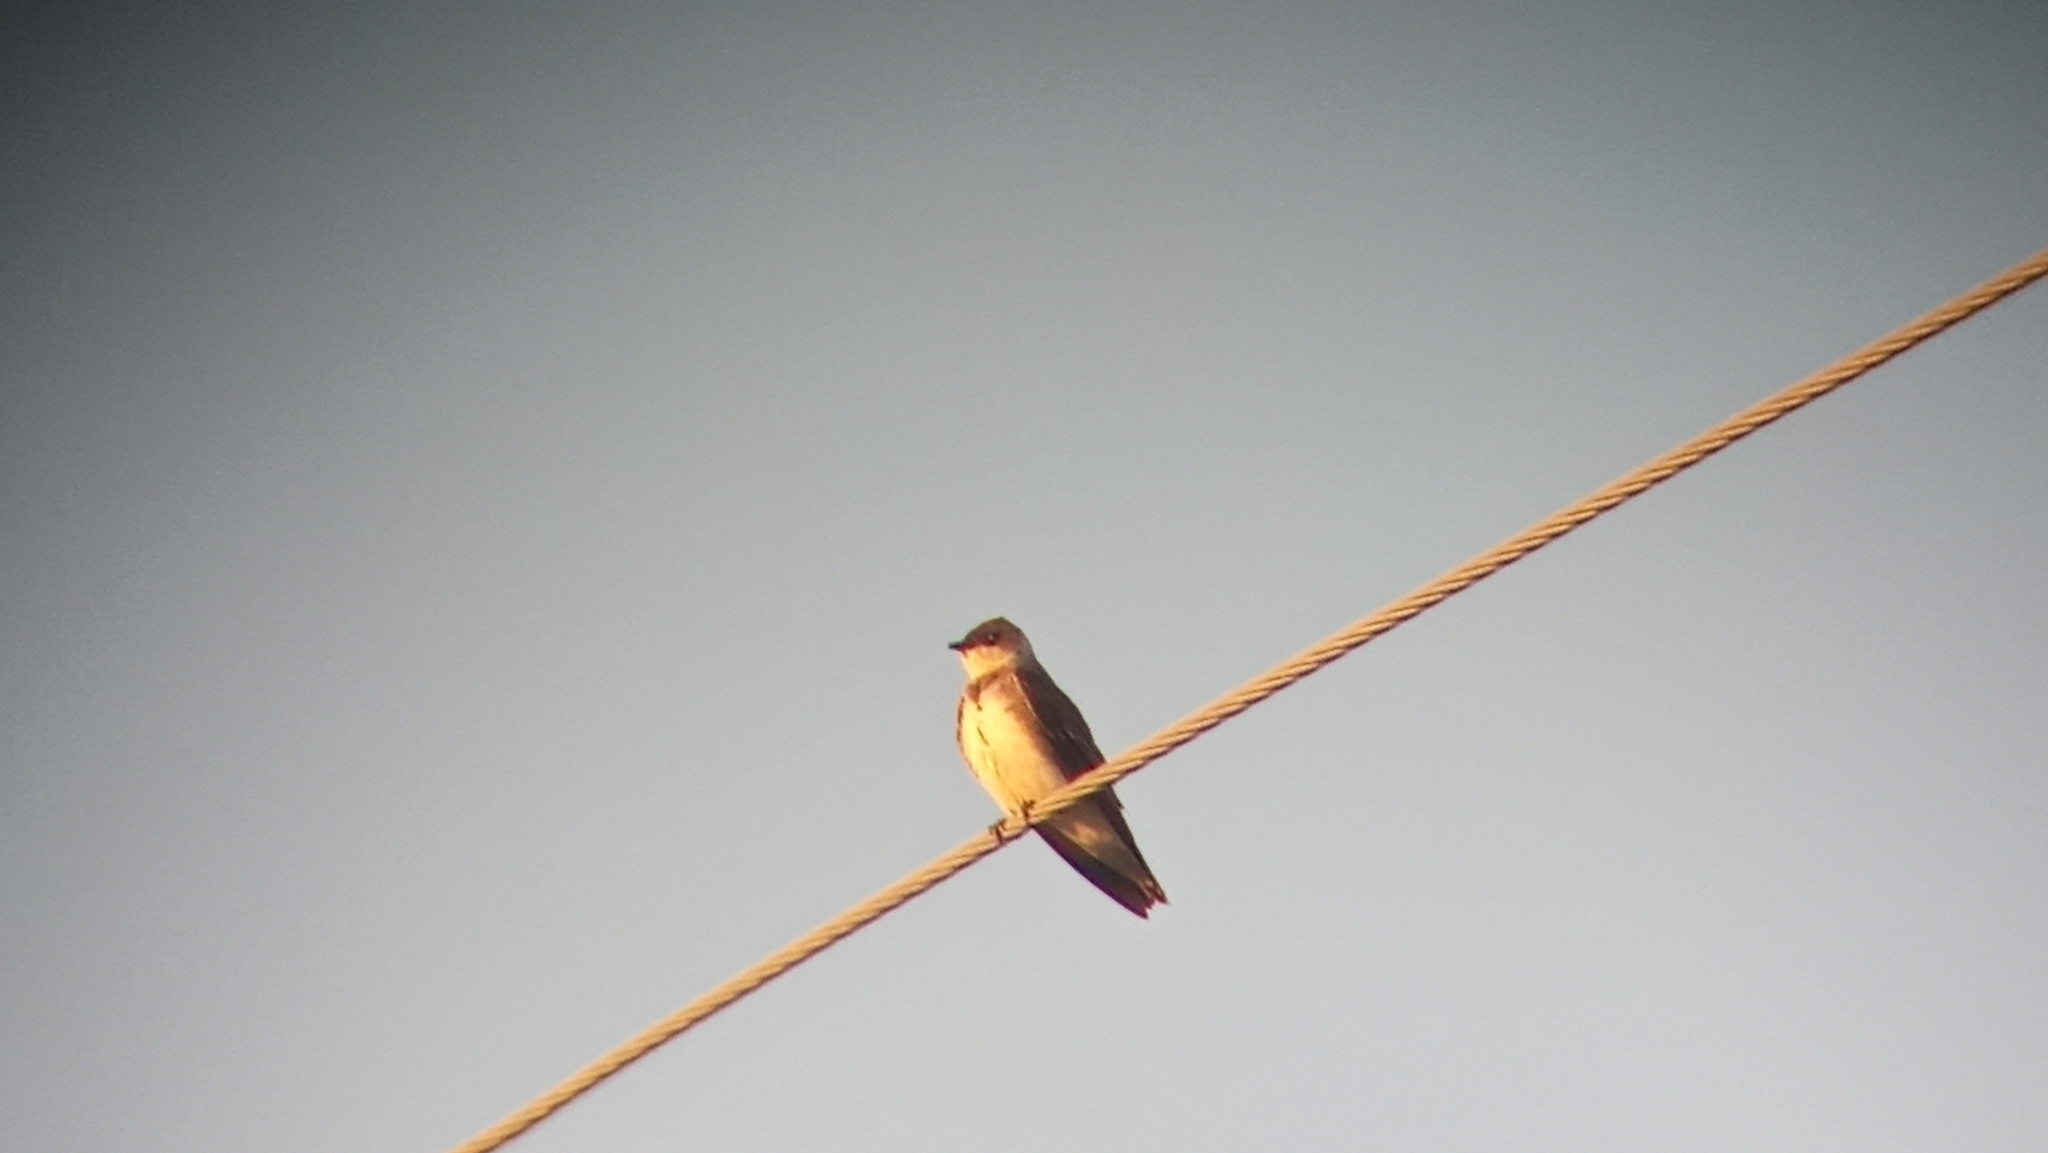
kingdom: Animalia
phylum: Chordata
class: Aves
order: Passeriformes
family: Hirundinidae
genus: Progne
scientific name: Progne tapera
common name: Brown-chested martin
